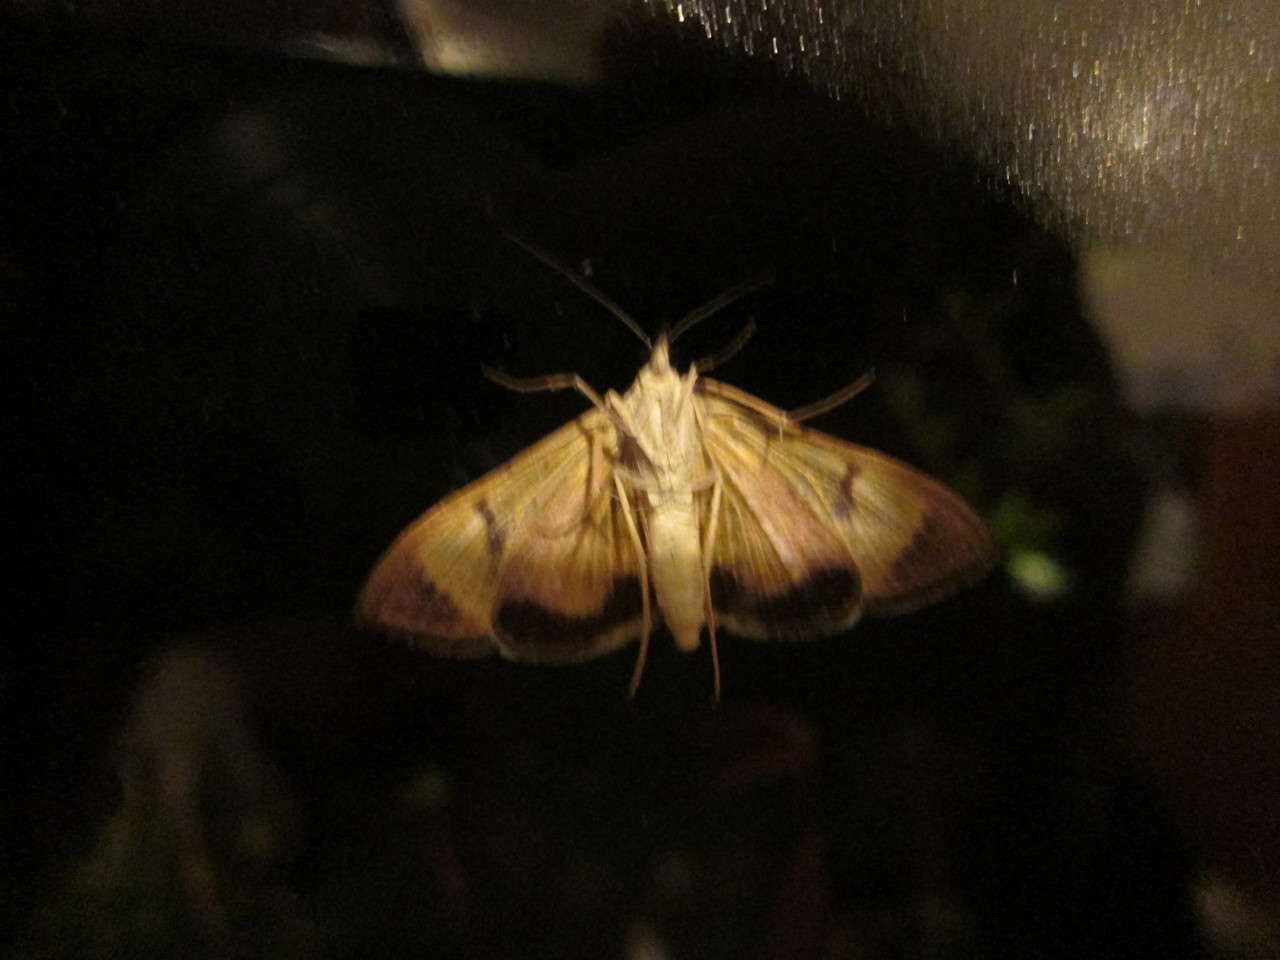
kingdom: Animalia
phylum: Arthropoda
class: Insecta
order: Lepidoptera
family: Crambidae
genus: Uresiphita
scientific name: Uresiphita ornithopteralis
